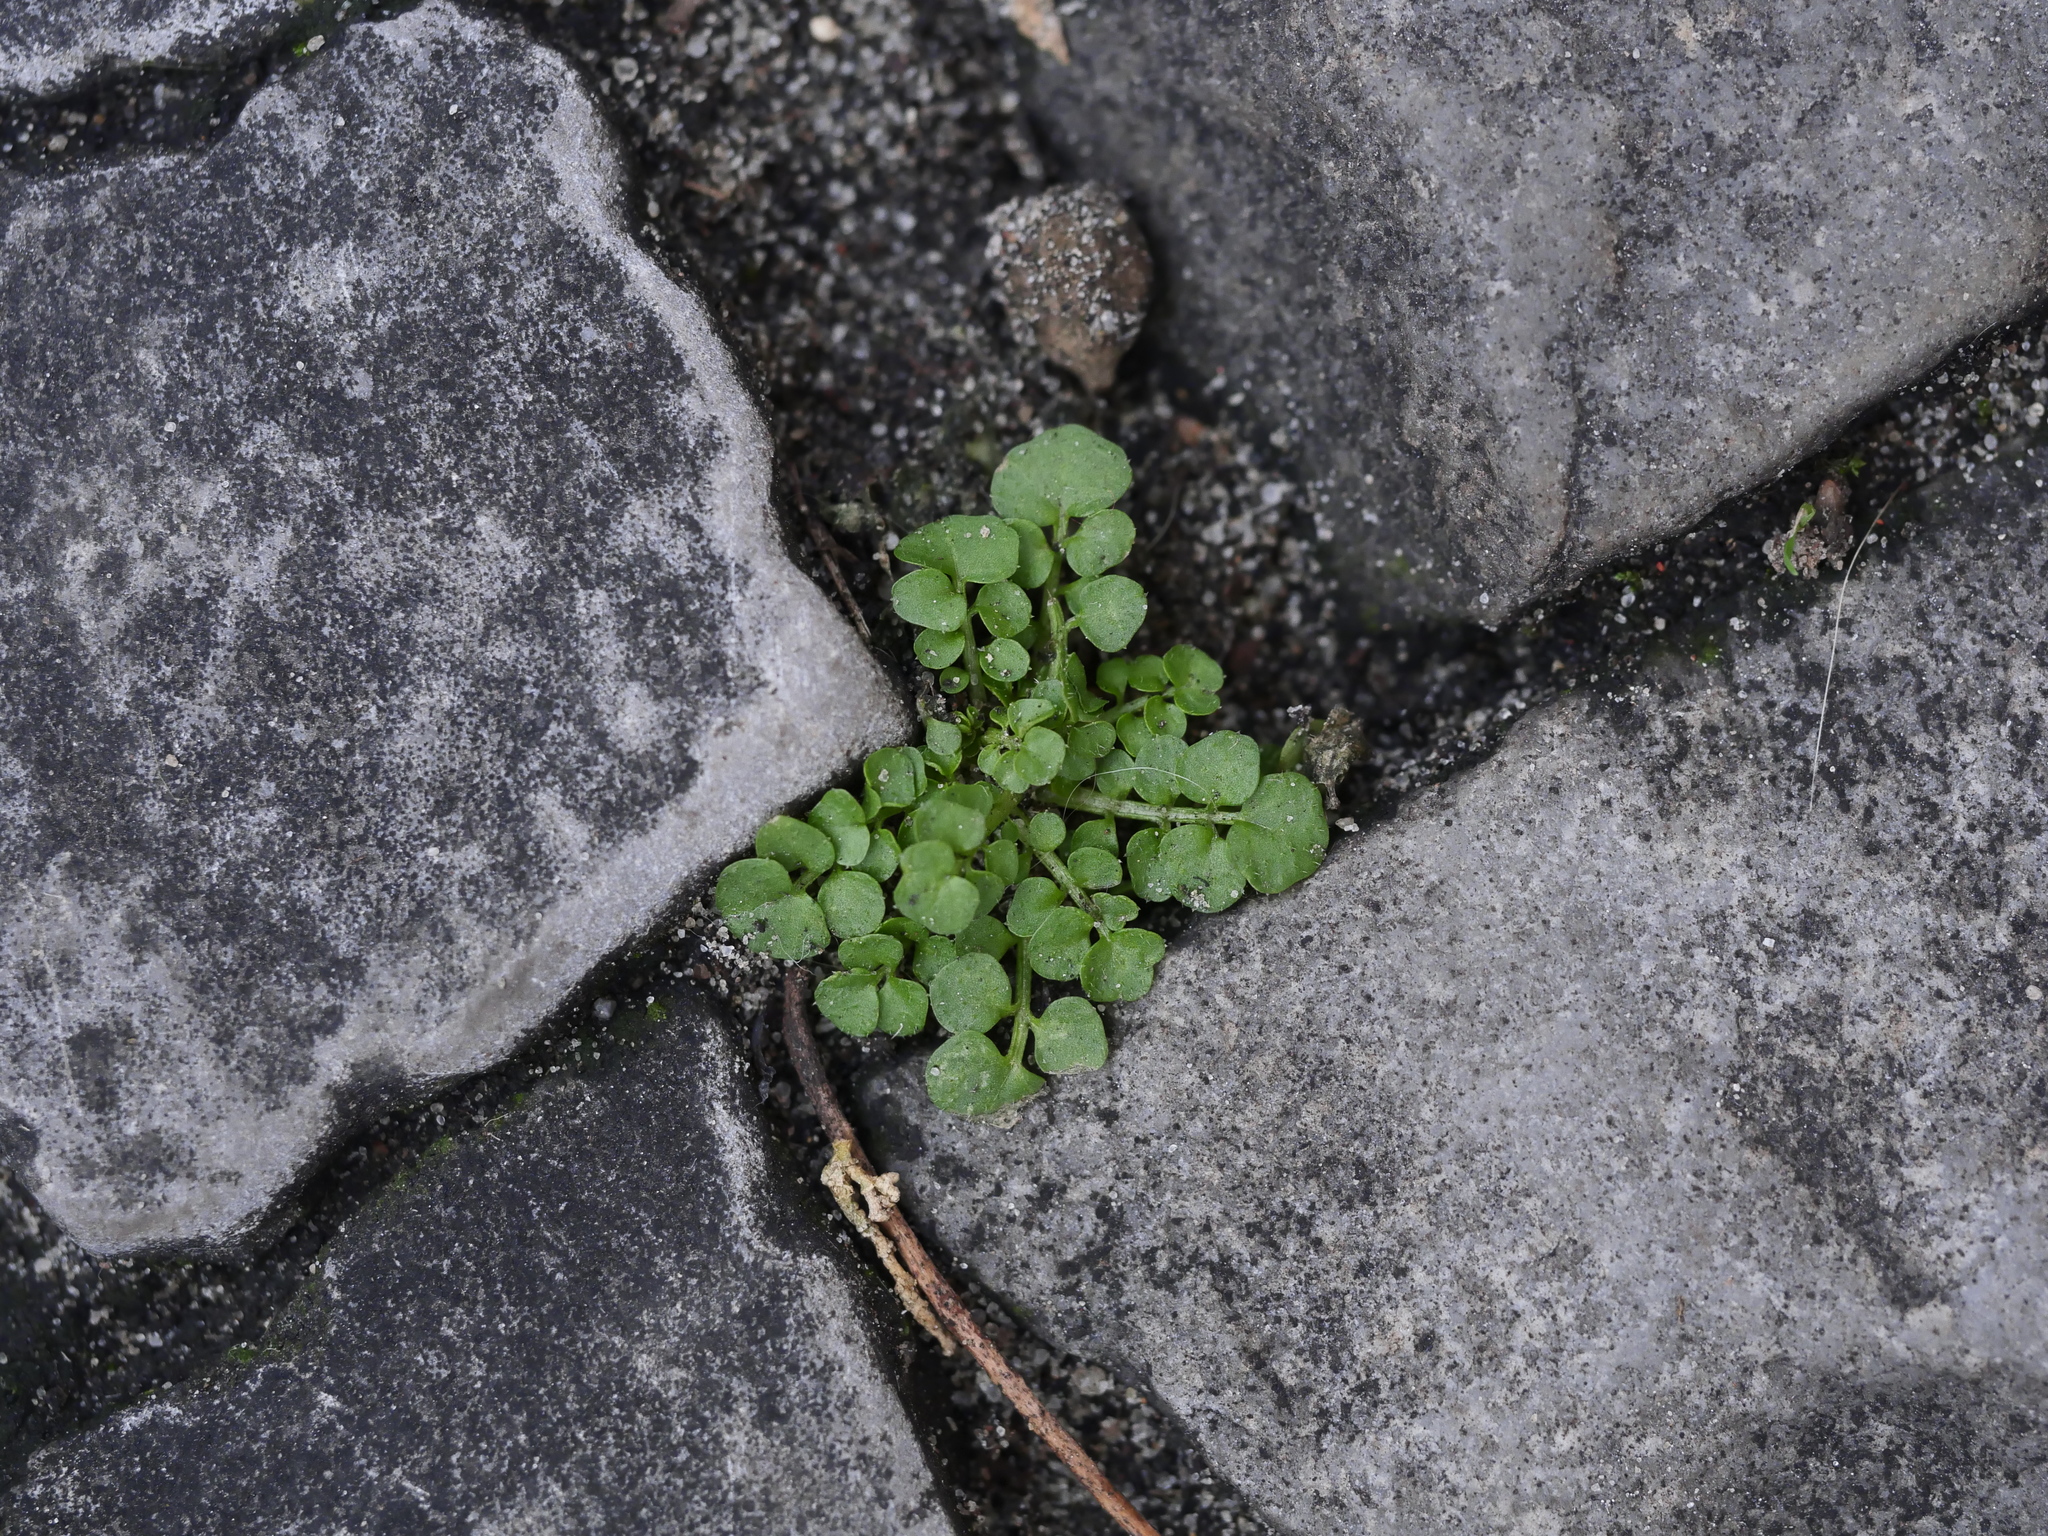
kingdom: Plantae
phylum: Tracheophyta
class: Magnoliopsida
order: Brassicales
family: Brassicaceae
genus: Cardamine
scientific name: Cardamine hirsuta
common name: Hairy bittercress
